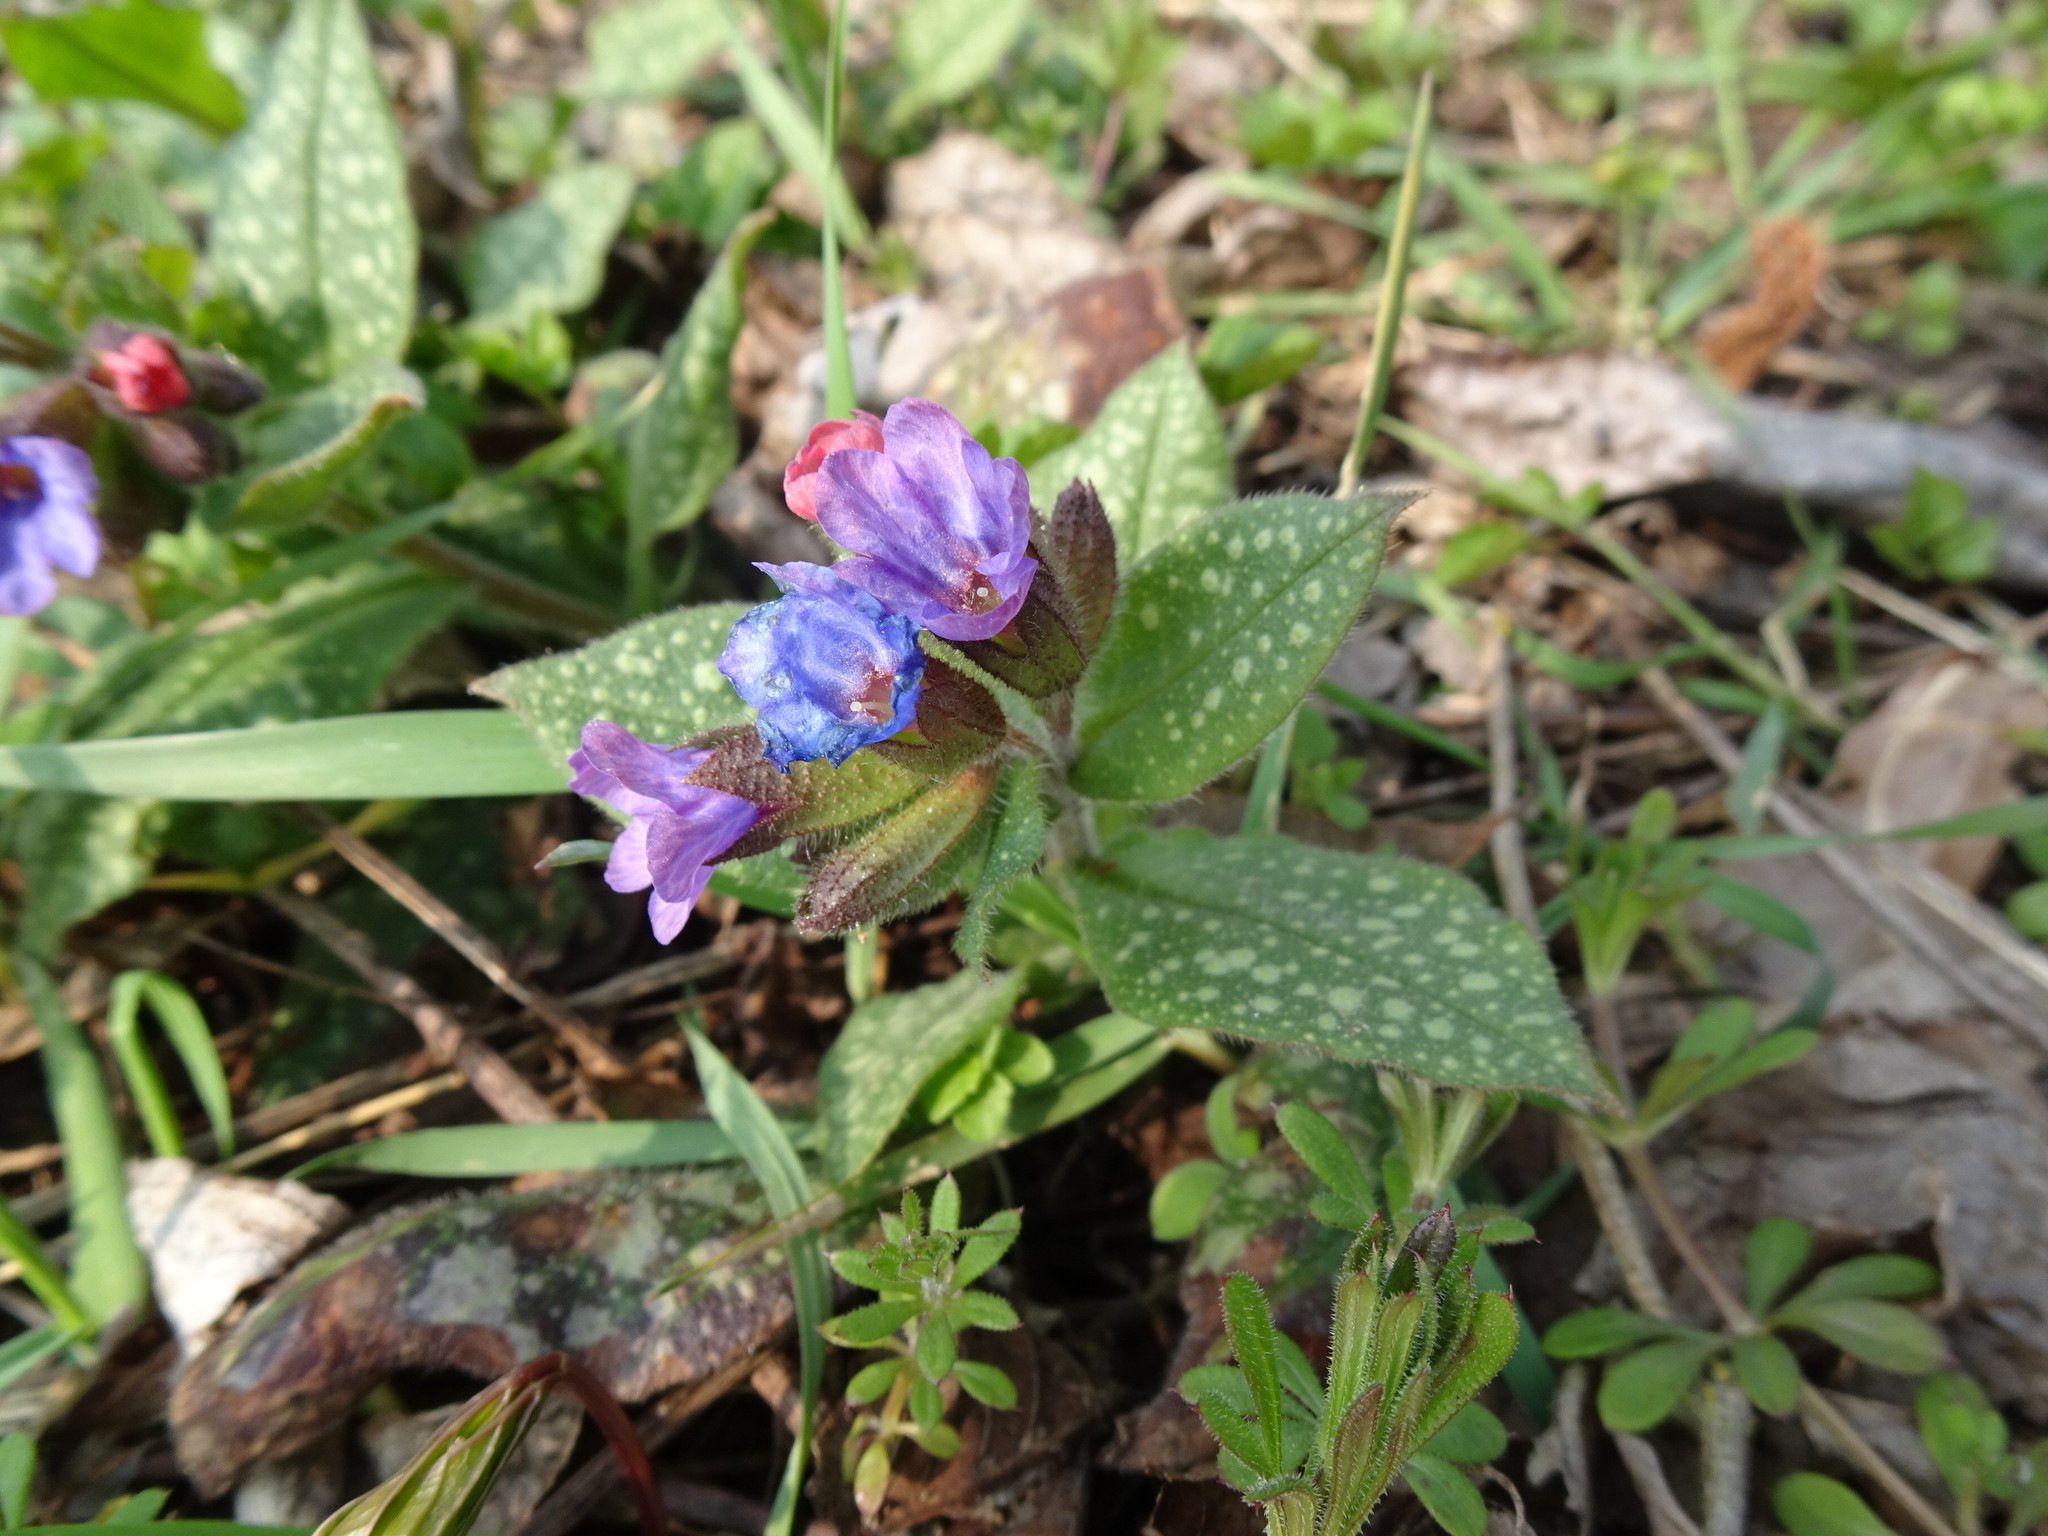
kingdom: Plantae
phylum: Tracheophyta
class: Magnoliopsida
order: Boraginales
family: Boraginaceae
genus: Pulmonaria
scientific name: Pulmonaria officinalis
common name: Lungwort
